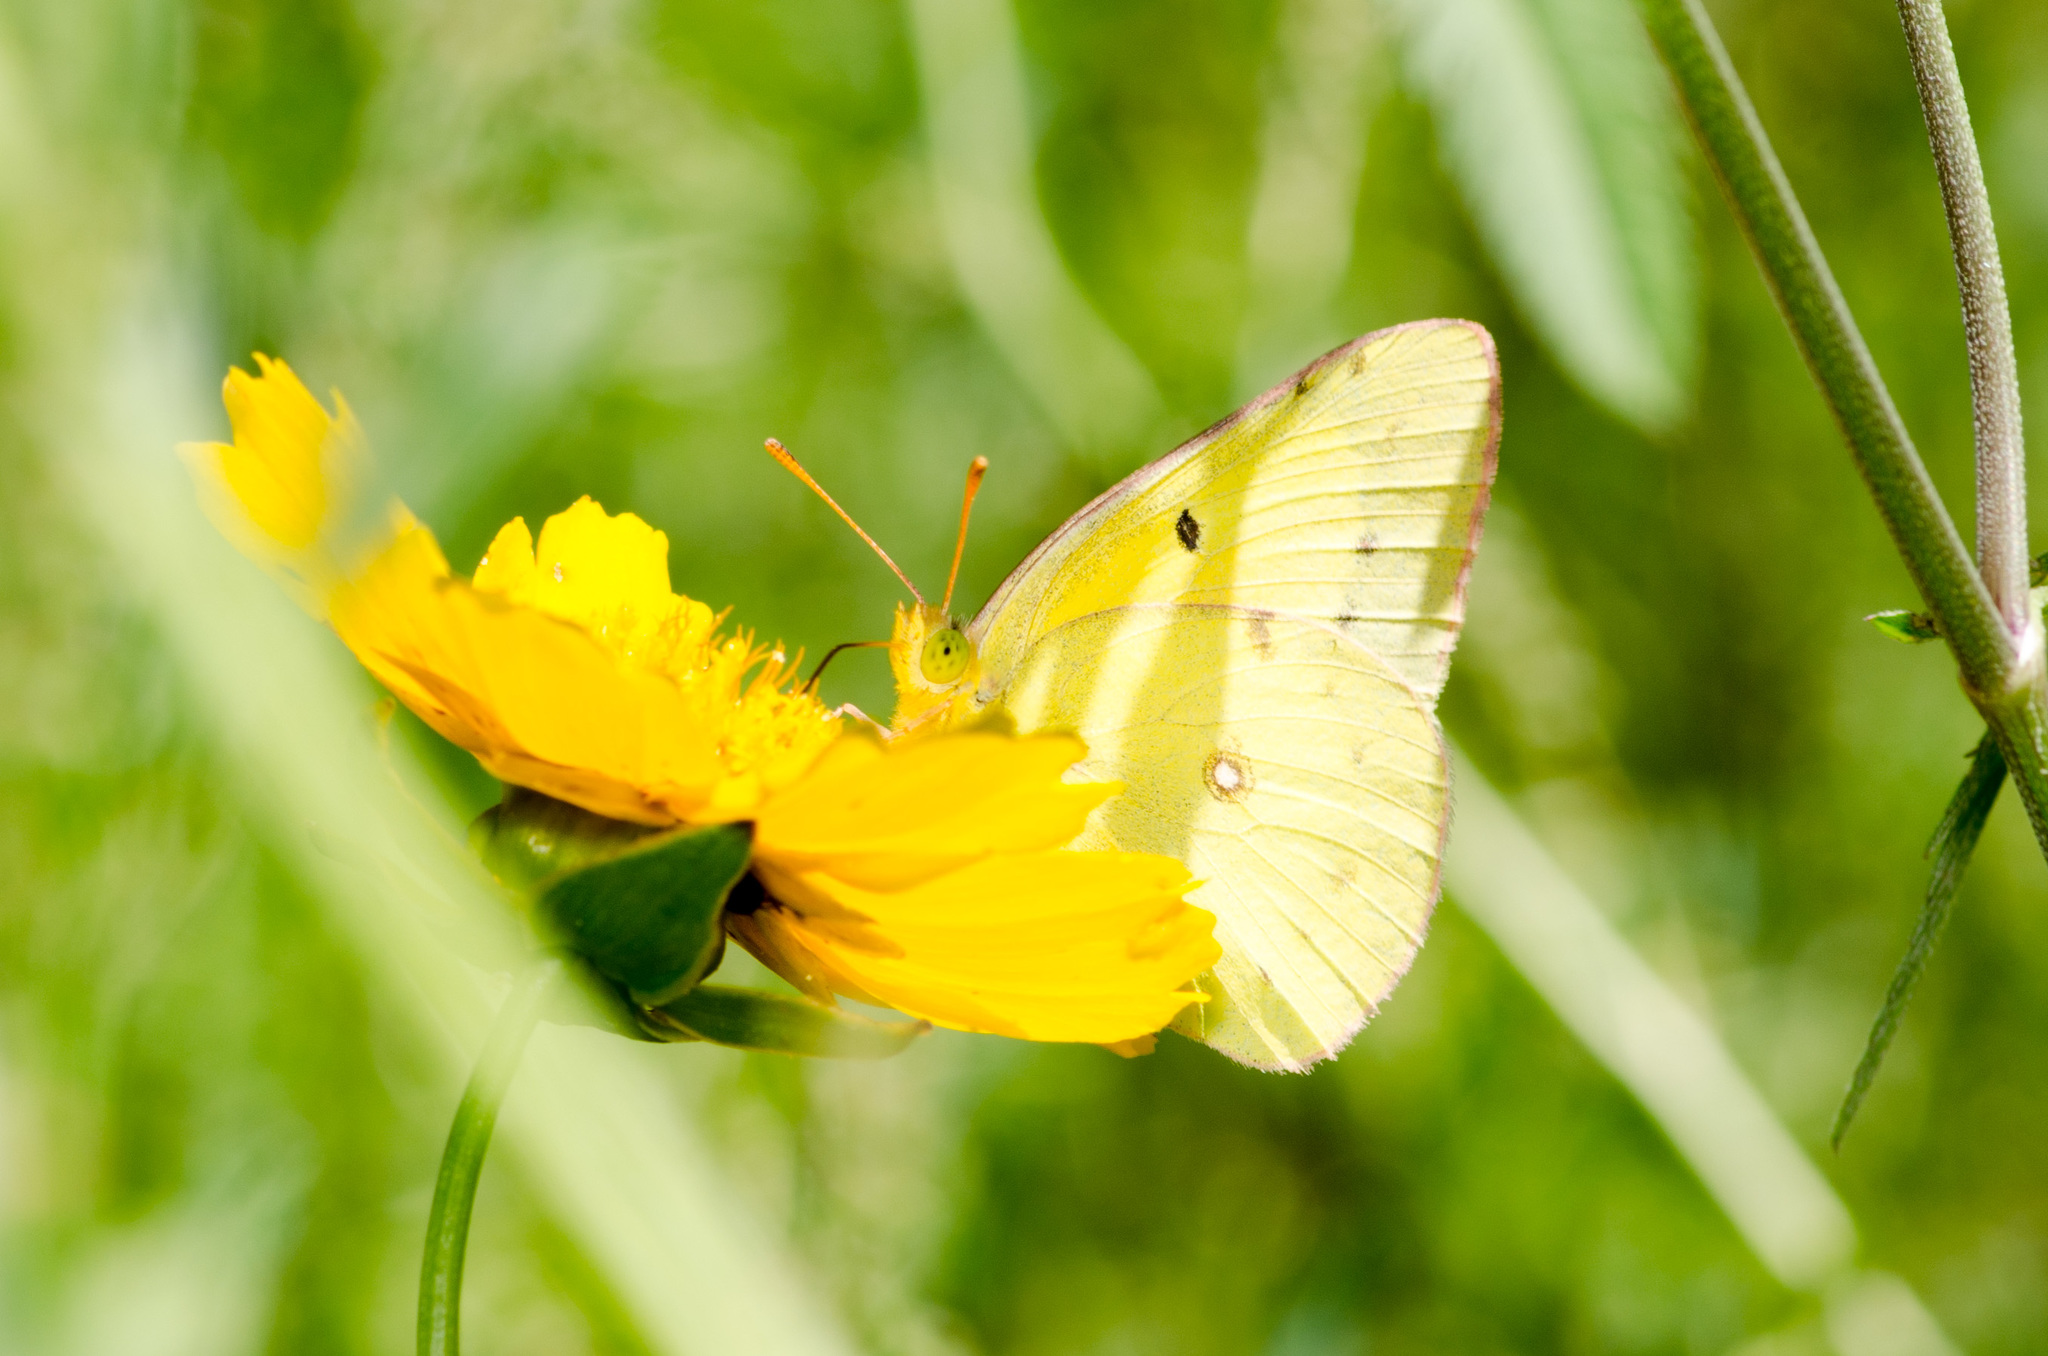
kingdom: Animalia
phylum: Arthropoda
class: Insecta
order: Lepidoptera
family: Pieridae
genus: Colias
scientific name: Colias eurytheme
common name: Alfalfa butterfly
